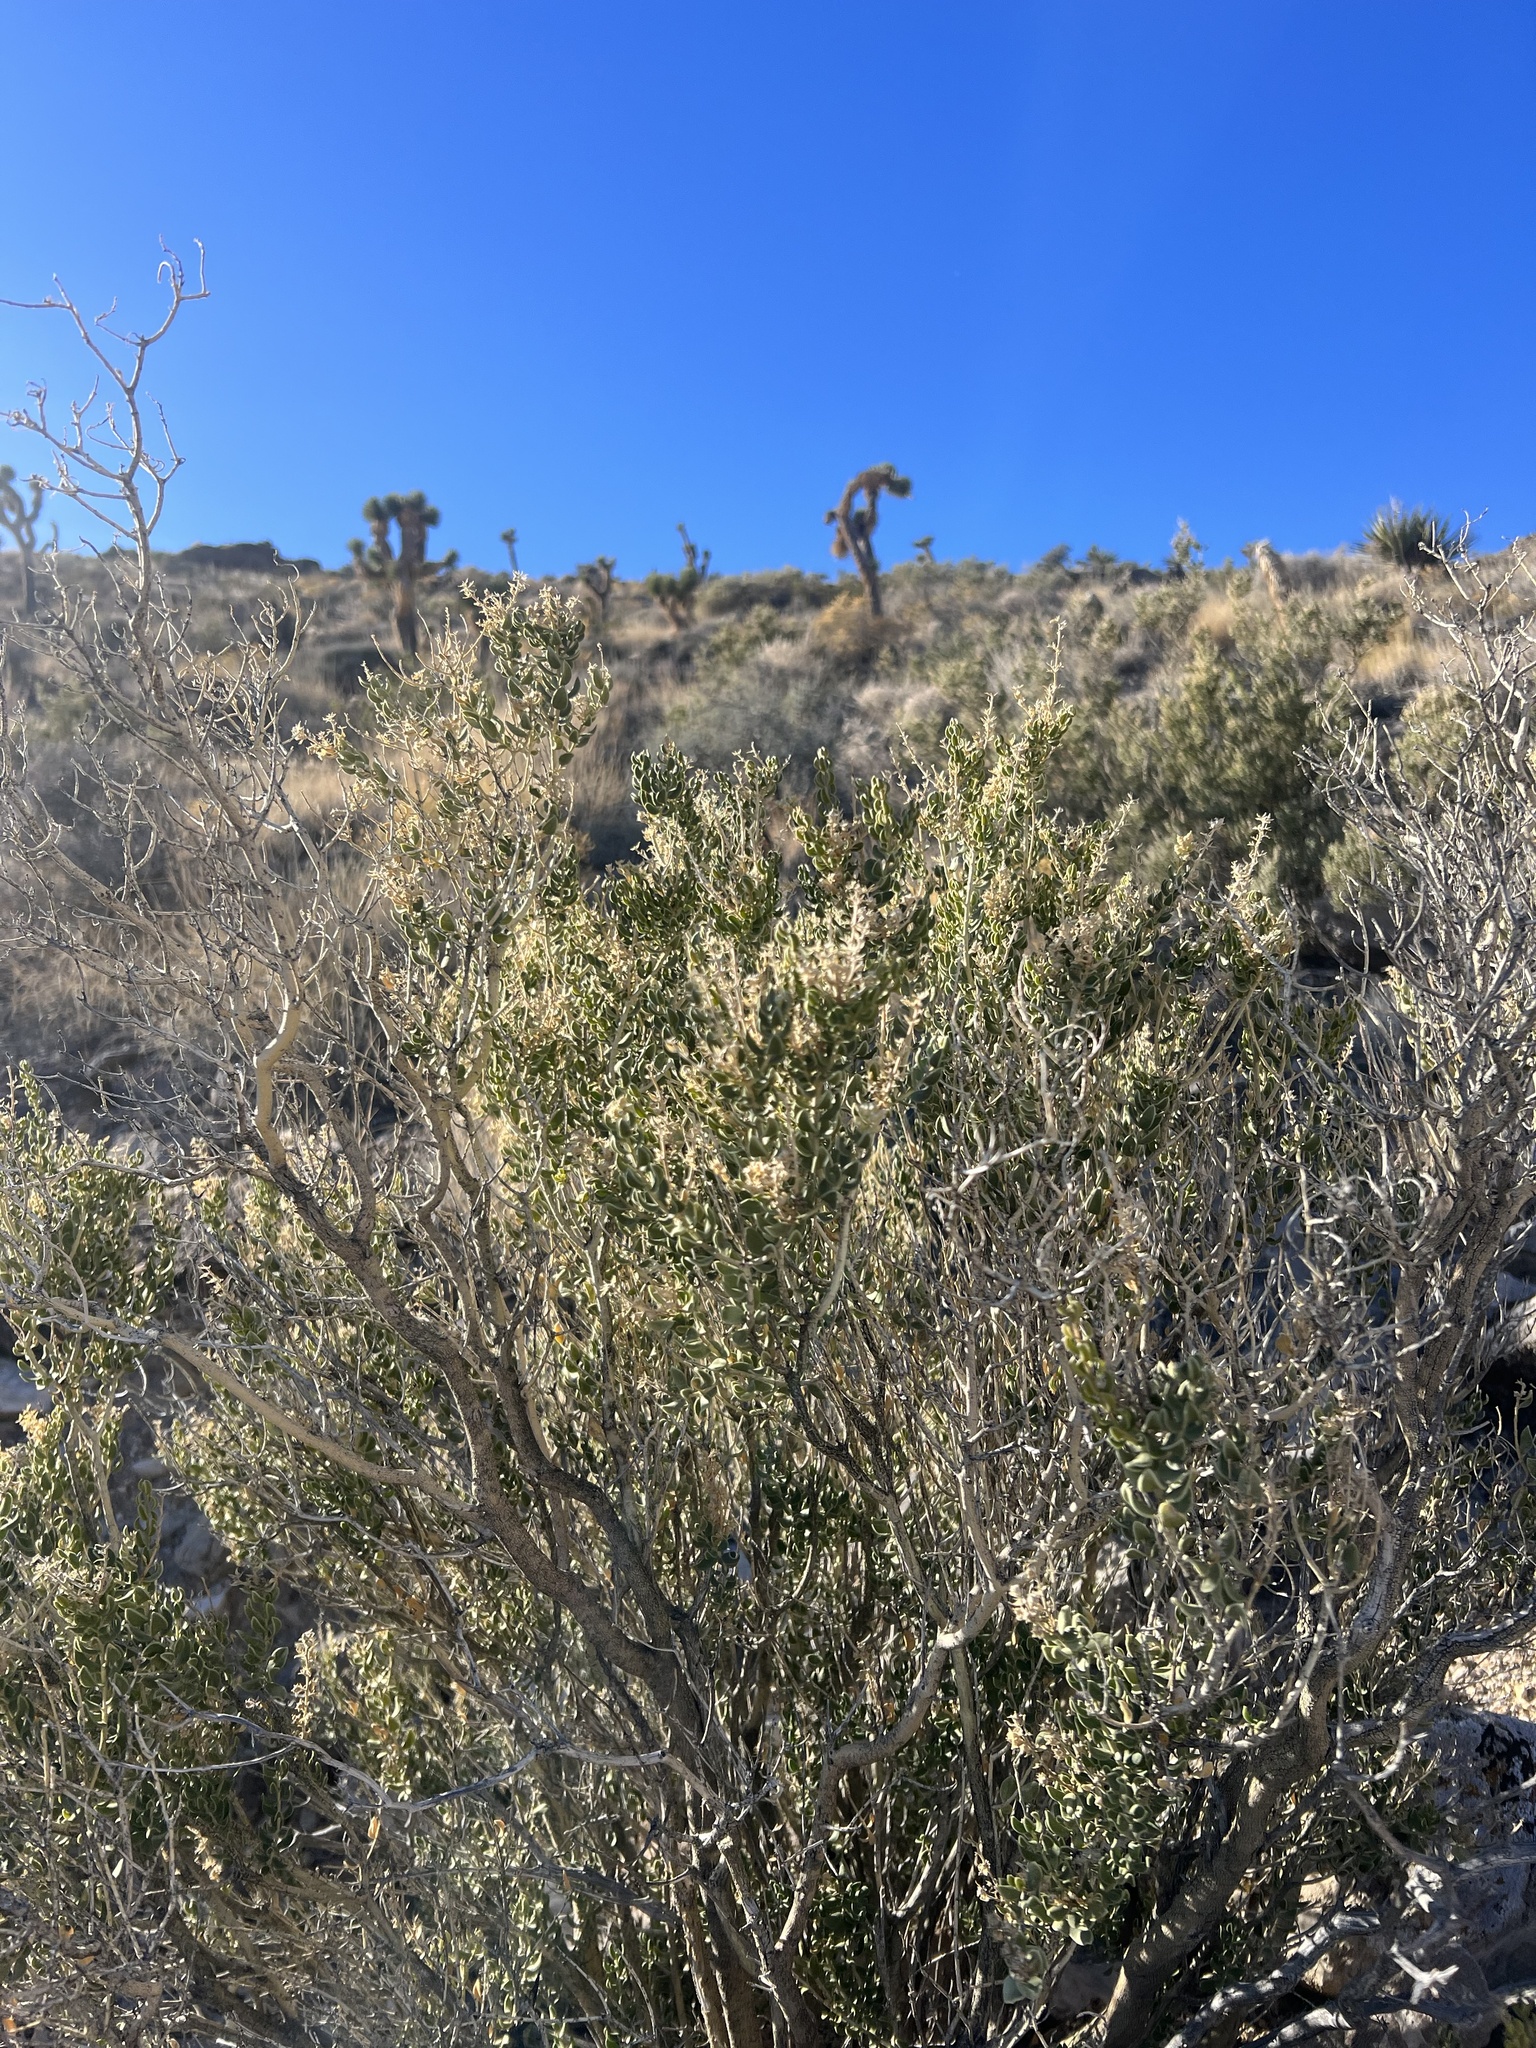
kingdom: Plantae
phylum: Tracheophyta
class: Magnoliopsida
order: Celastrales
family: Celastraceae
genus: Mortonia
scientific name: Mortonia utahensis
